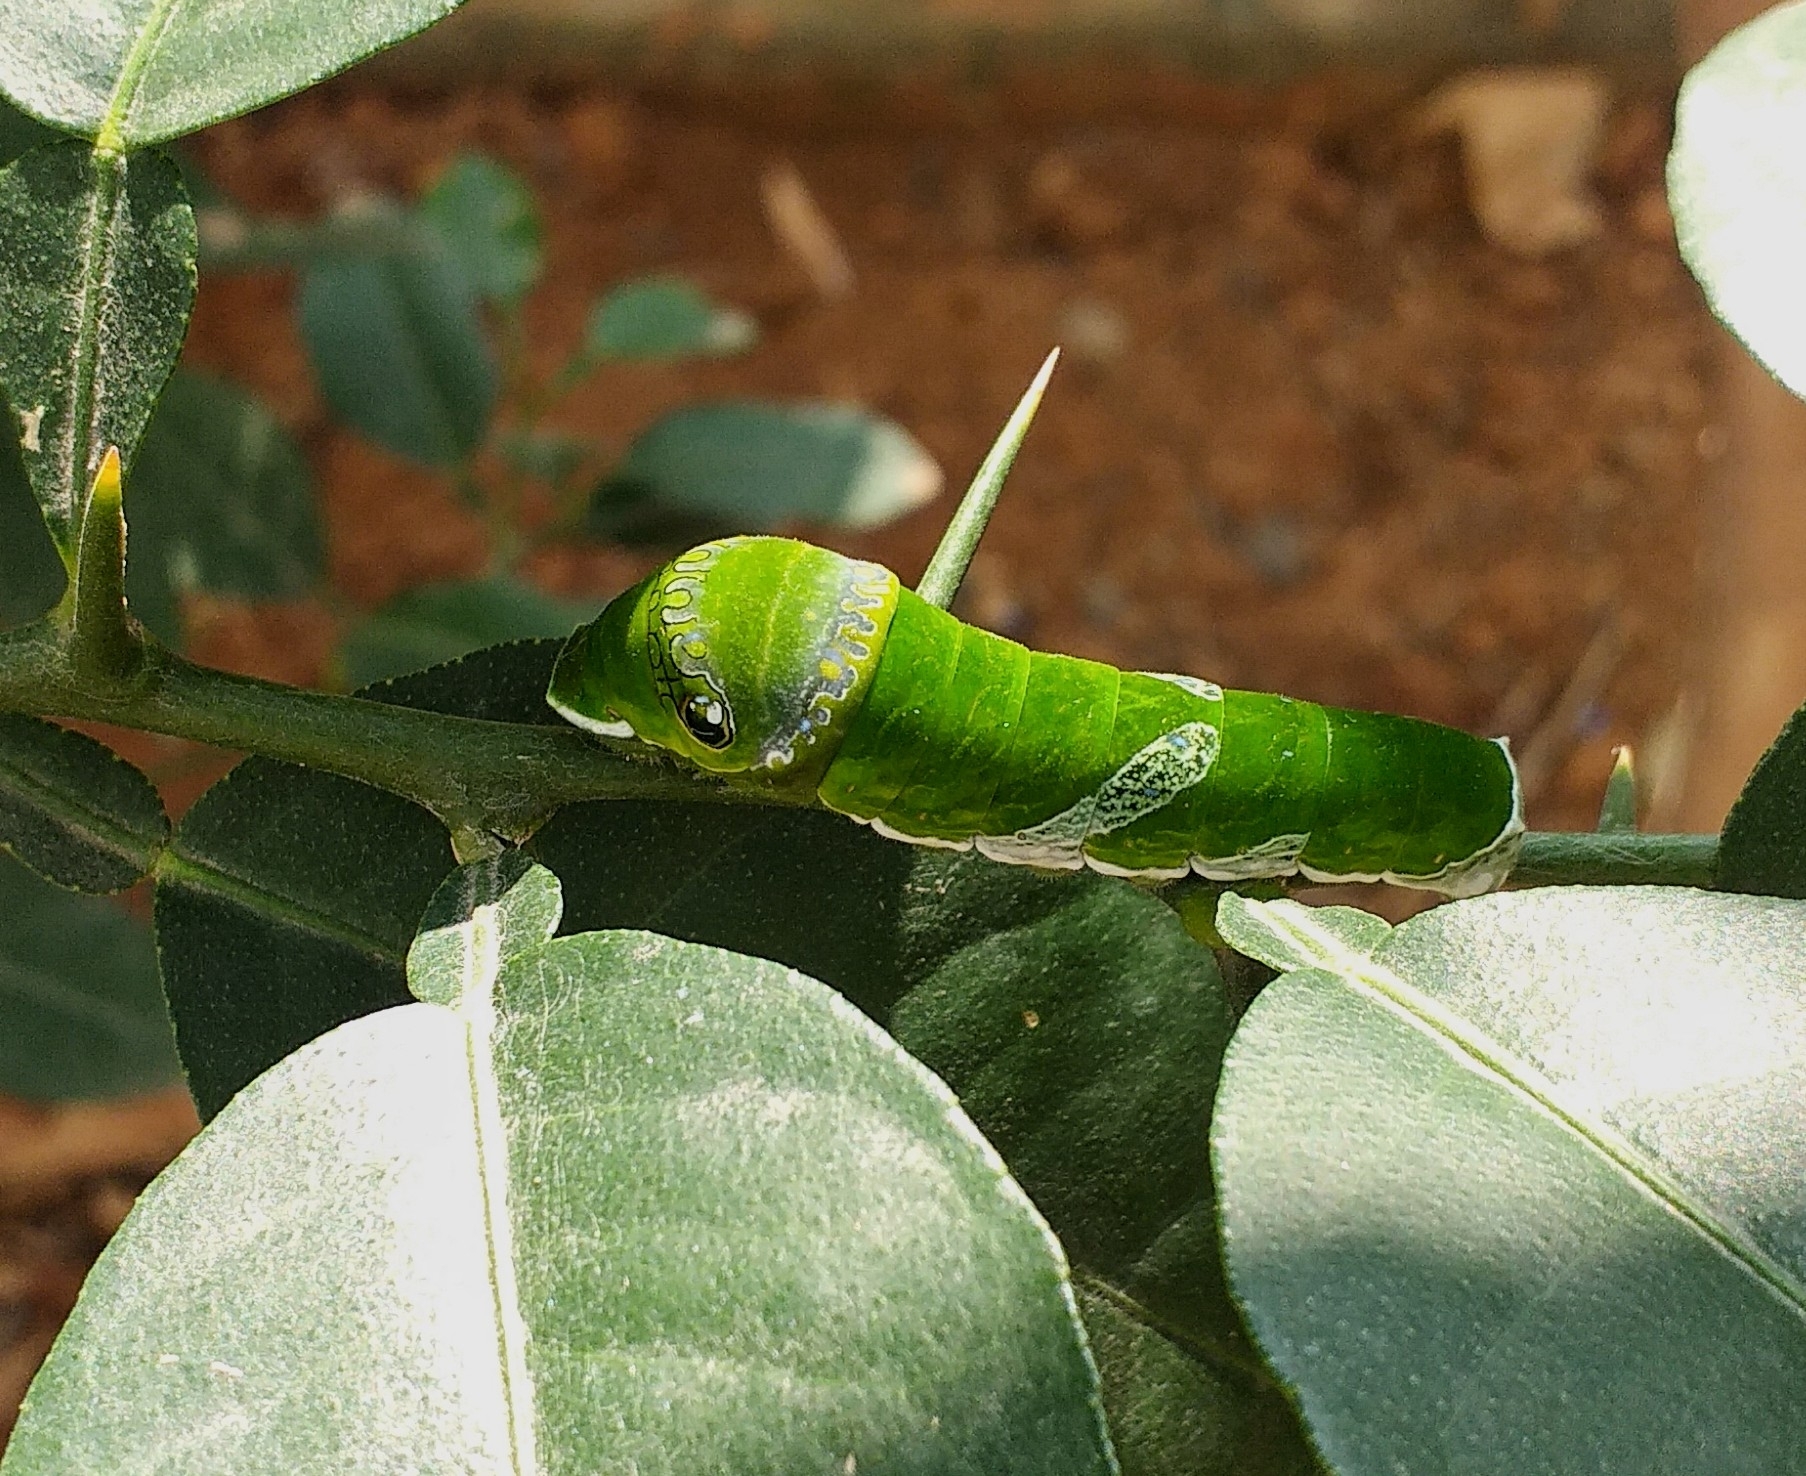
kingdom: Animalia
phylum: Arthropoda
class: Insecta
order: Lepidoptera
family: Papilionidae
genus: Papilio
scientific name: Papilio memnon
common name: Great mormon
